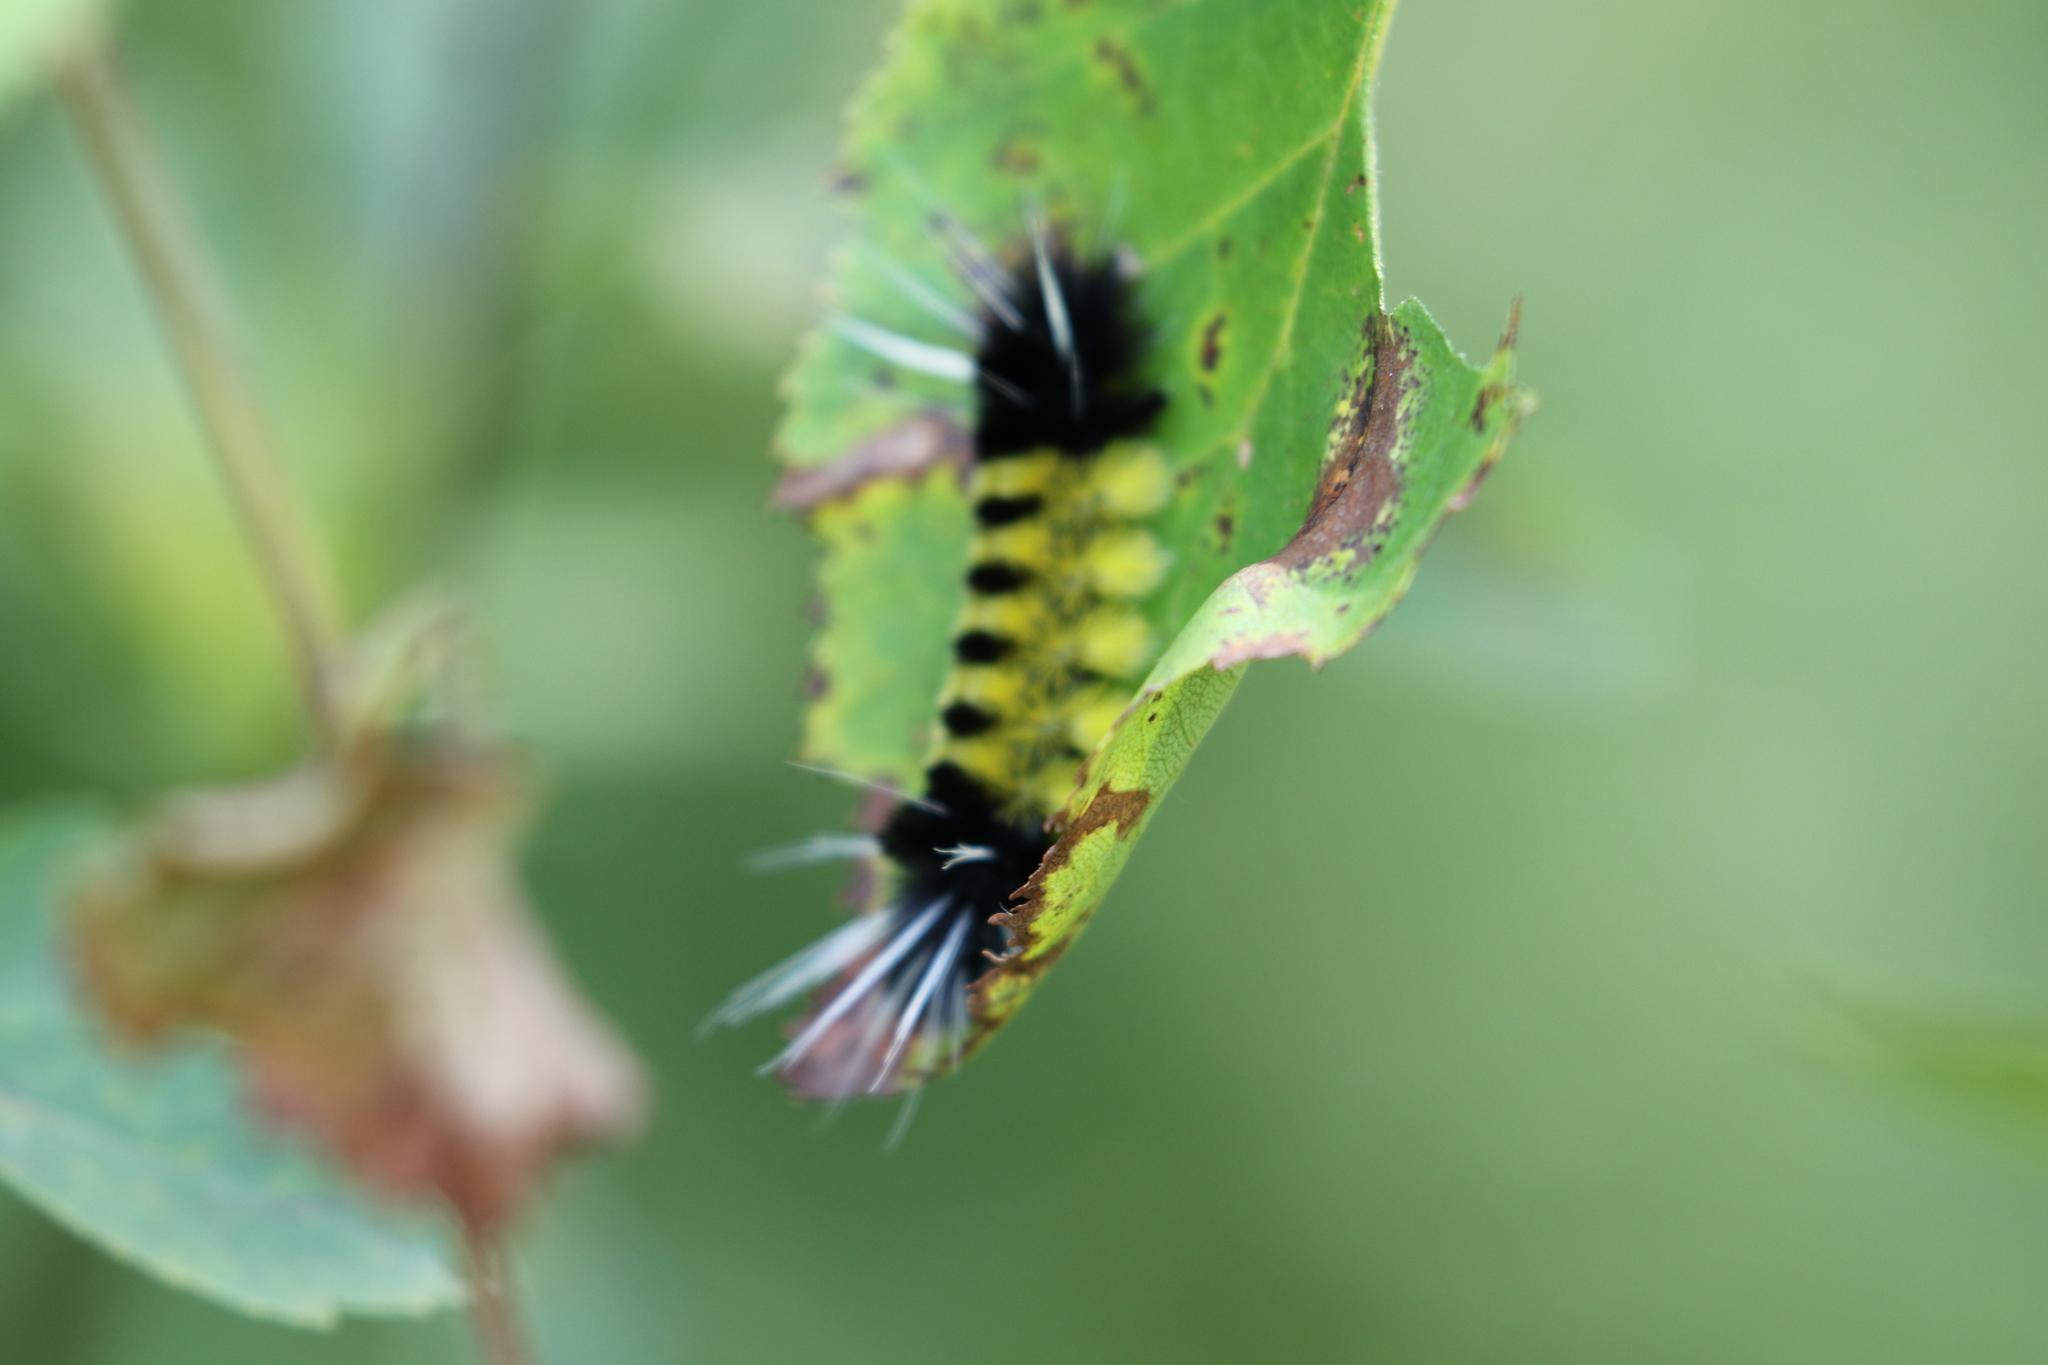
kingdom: Animalia
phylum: Arthropoda
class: Insecta
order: Lepidoptera
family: Erebidae
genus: Lophocampa
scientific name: Lophocampa maculata
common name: Spotted tussock moth
